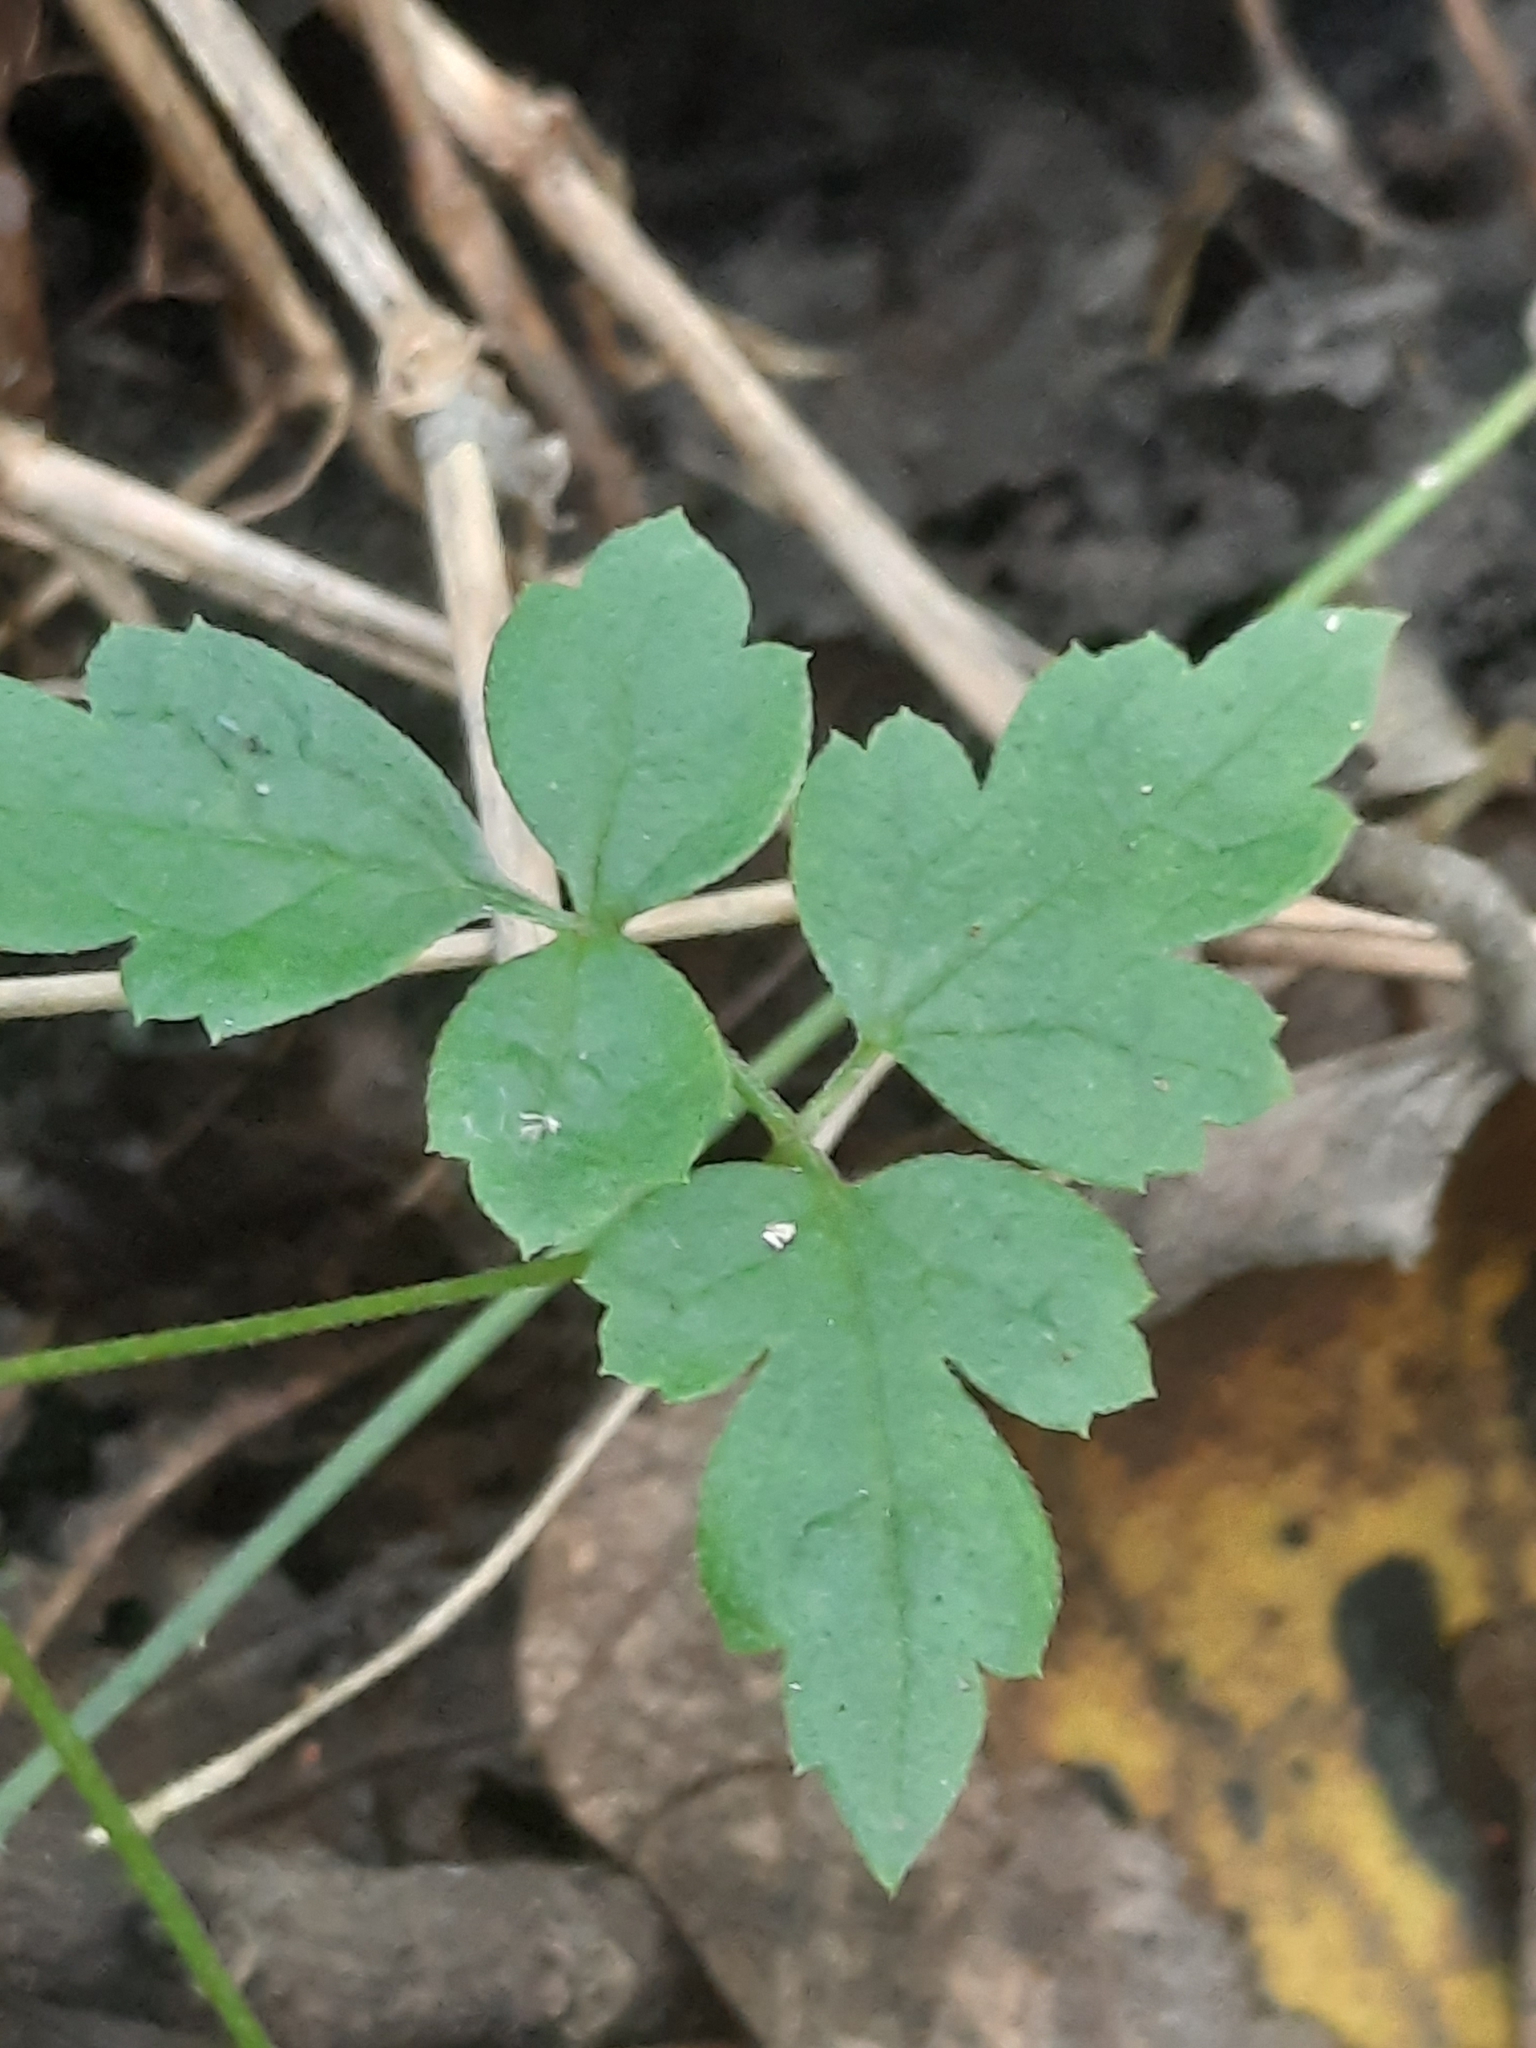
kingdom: Plantae
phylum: Tracheophyta
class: Magnoliopsida
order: Ranunculales
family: Ranunculaceae
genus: Clematis
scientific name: Clematis grata
